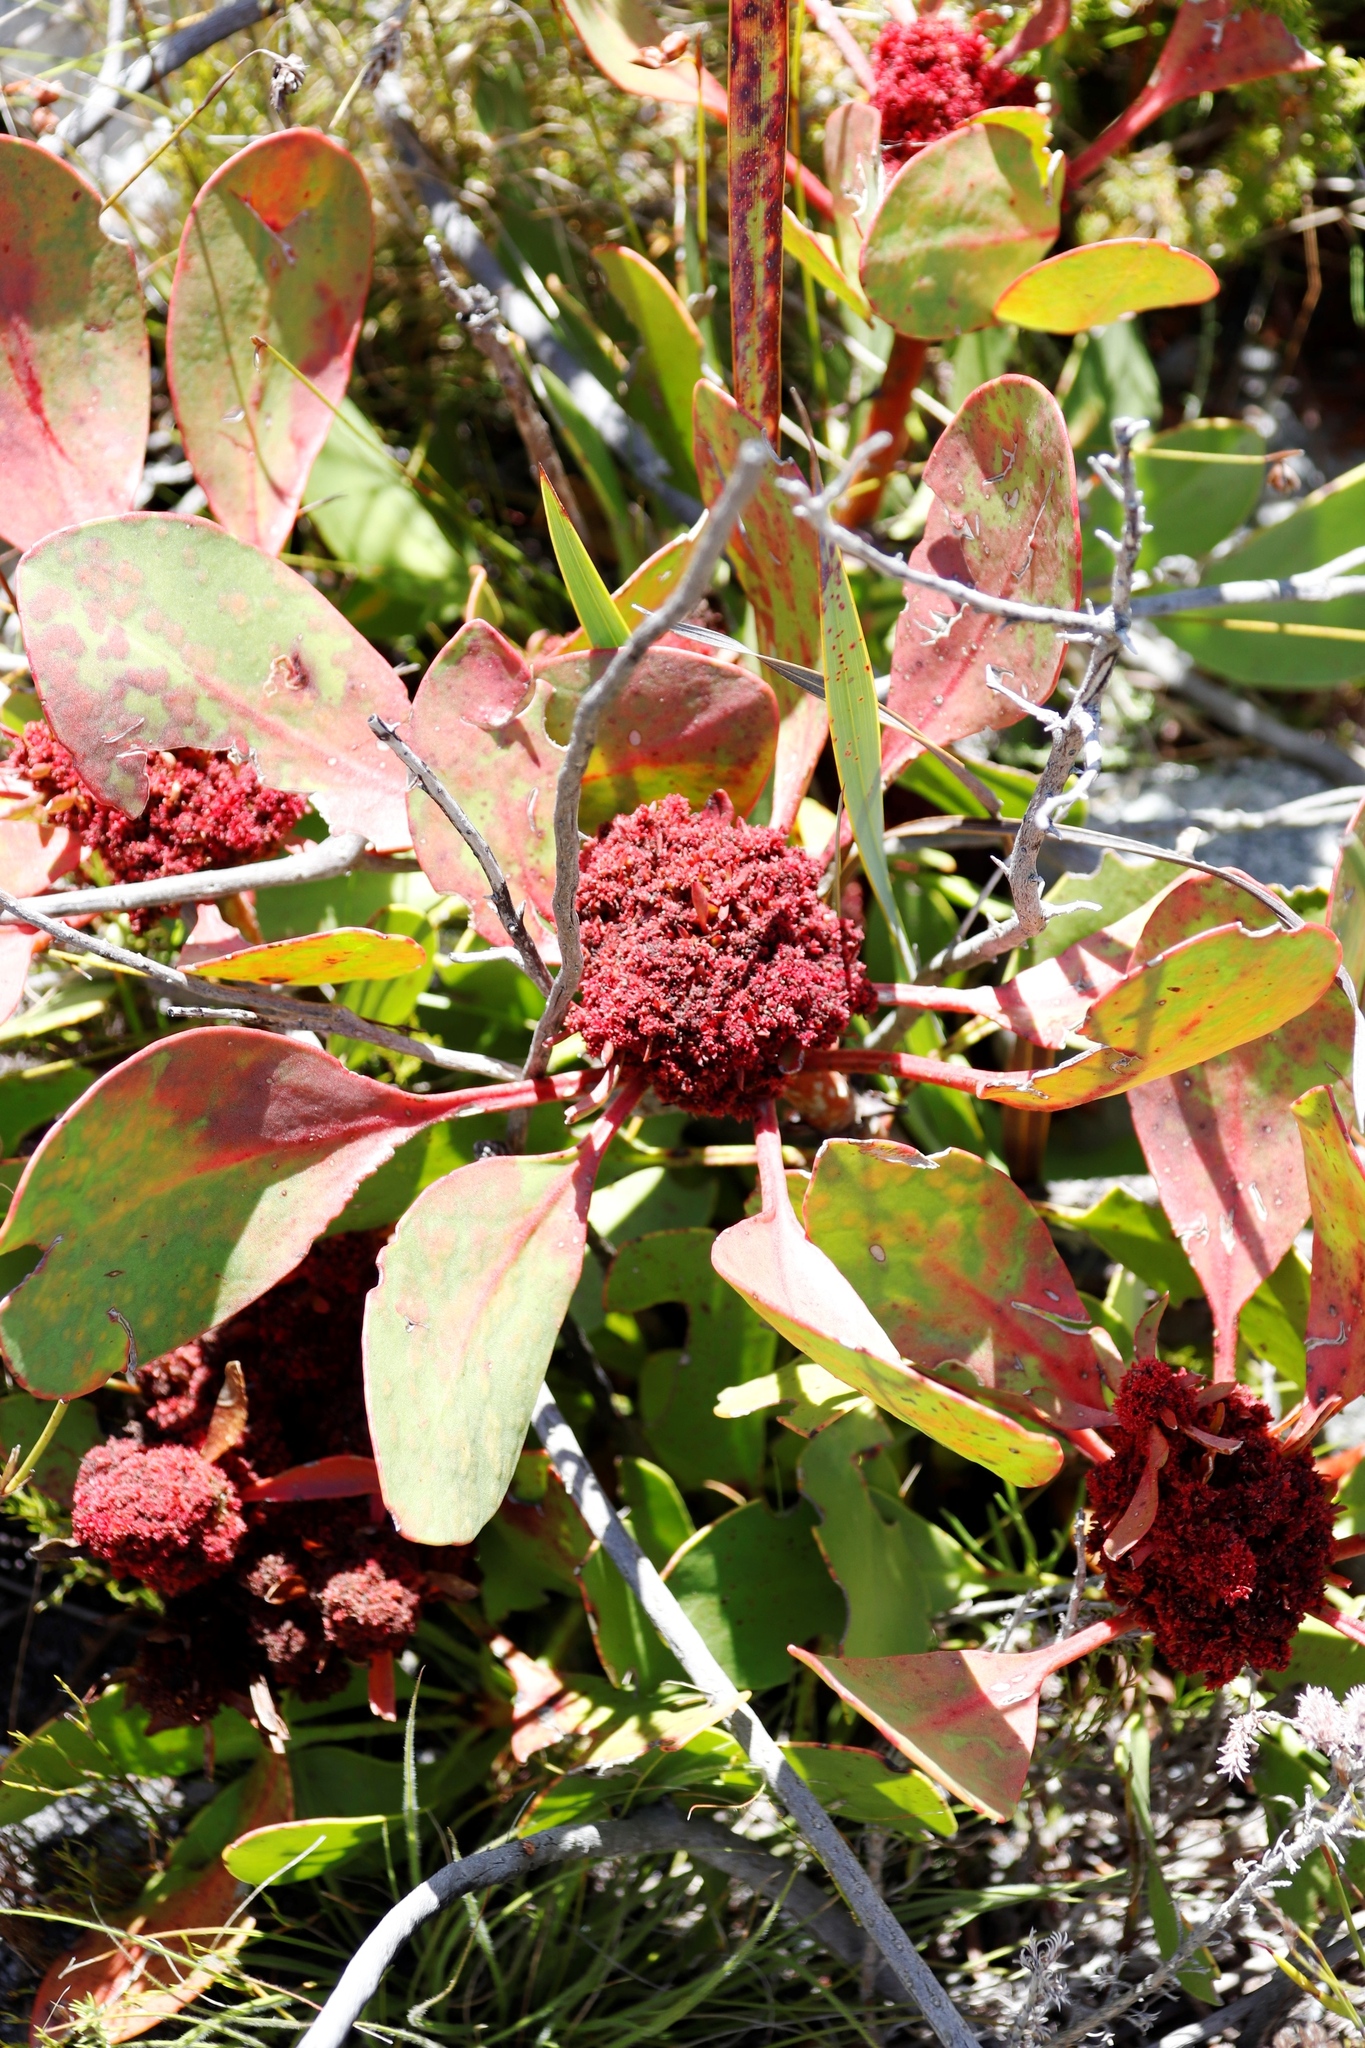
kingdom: Plantae
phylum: Tracheophyta
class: Magnoliopsida
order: Proteales
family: Proteaceae
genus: Protea
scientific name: Protea cynaroides
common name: King protea
